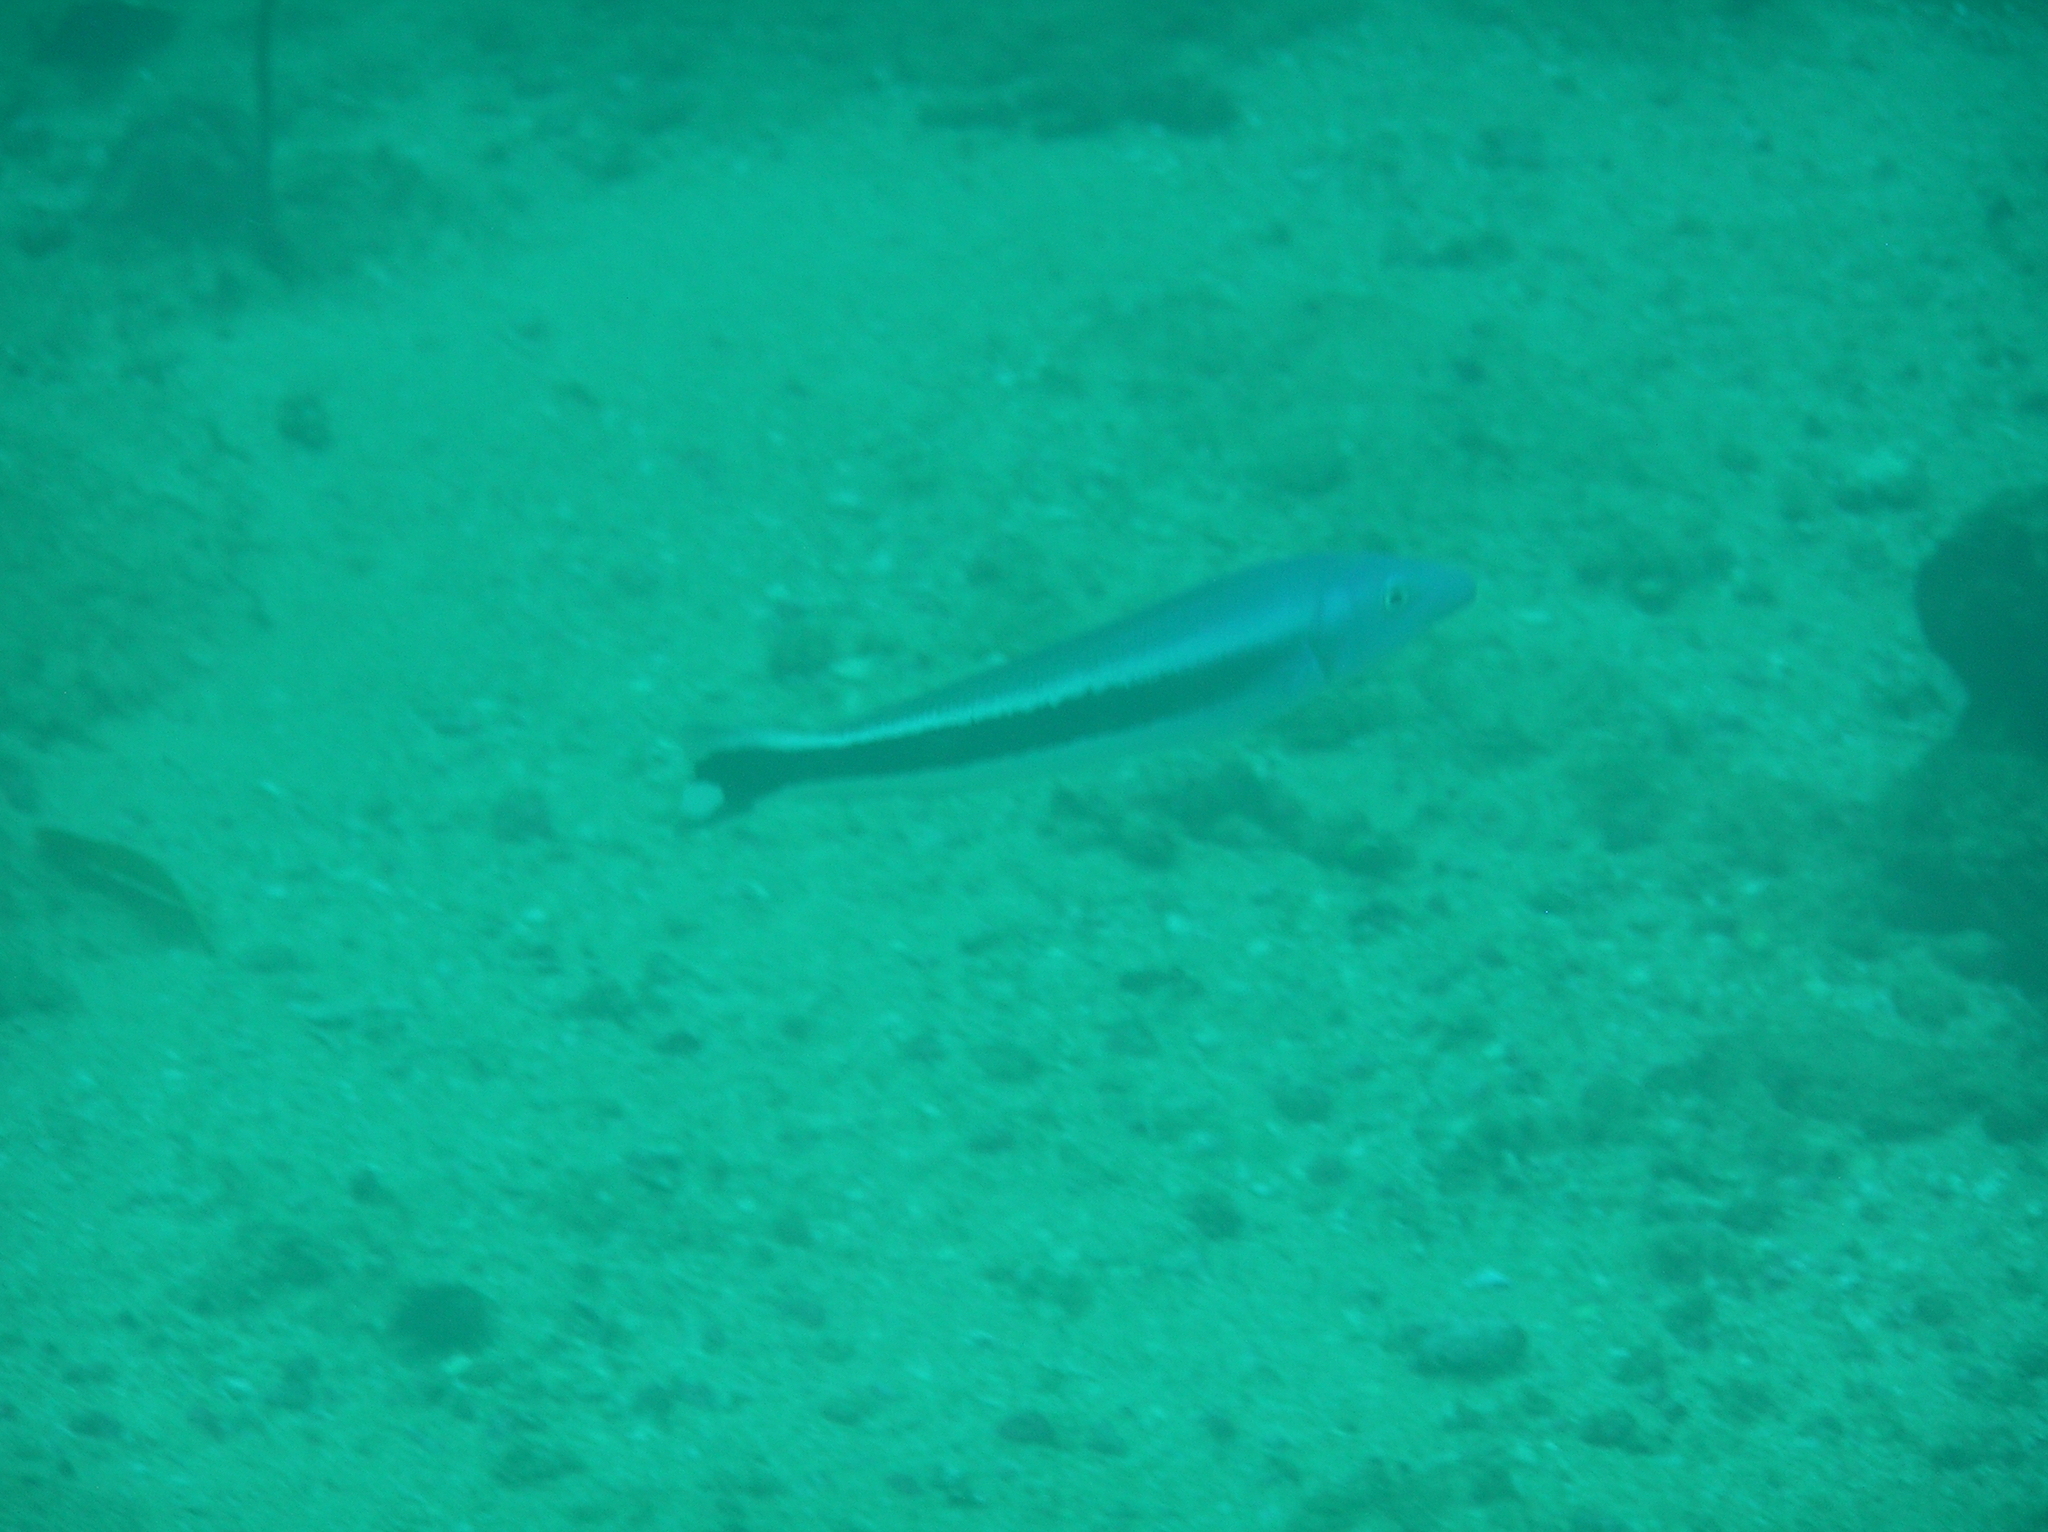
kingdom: Animalia
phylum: Chordata
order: Perciformes
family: Malacanthidae
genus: Malacanthus
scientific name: Malacanthus latovittatus
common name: Blue blanquillo
